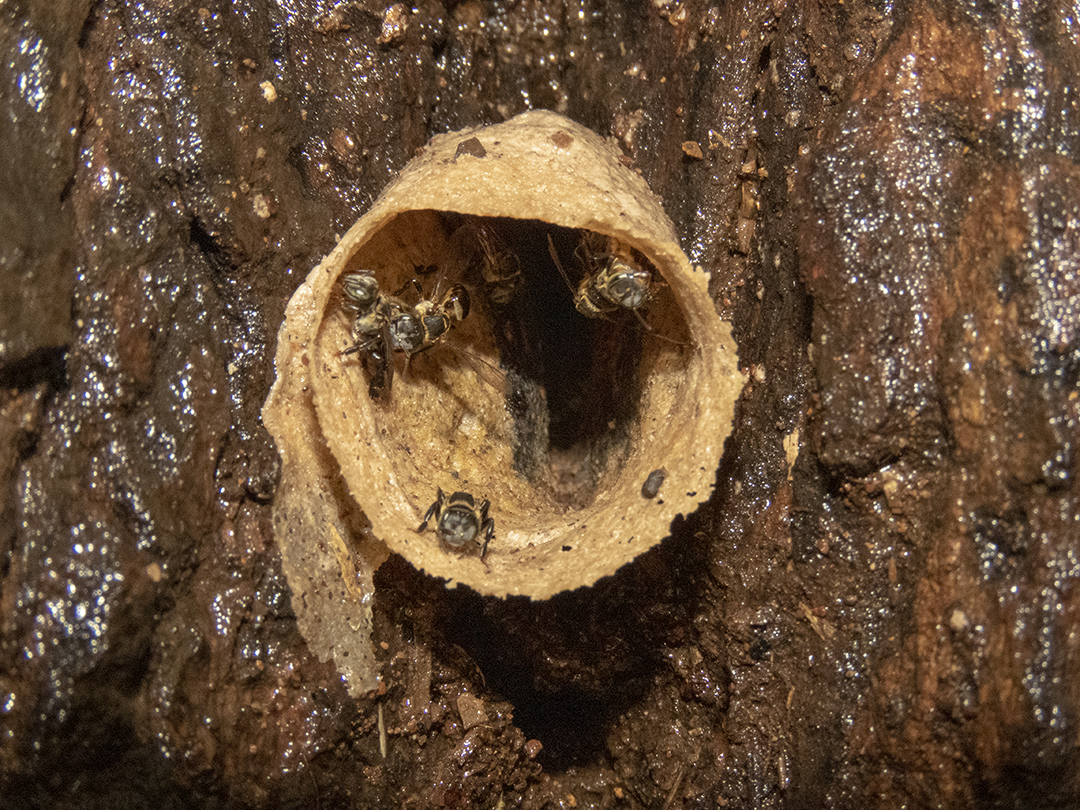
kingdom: Animalia
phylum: Arthropoda
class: Insecta
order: Hymenoptera
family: Apidae
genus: Lepidotrigona
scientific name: Lepidotrigona terminata
